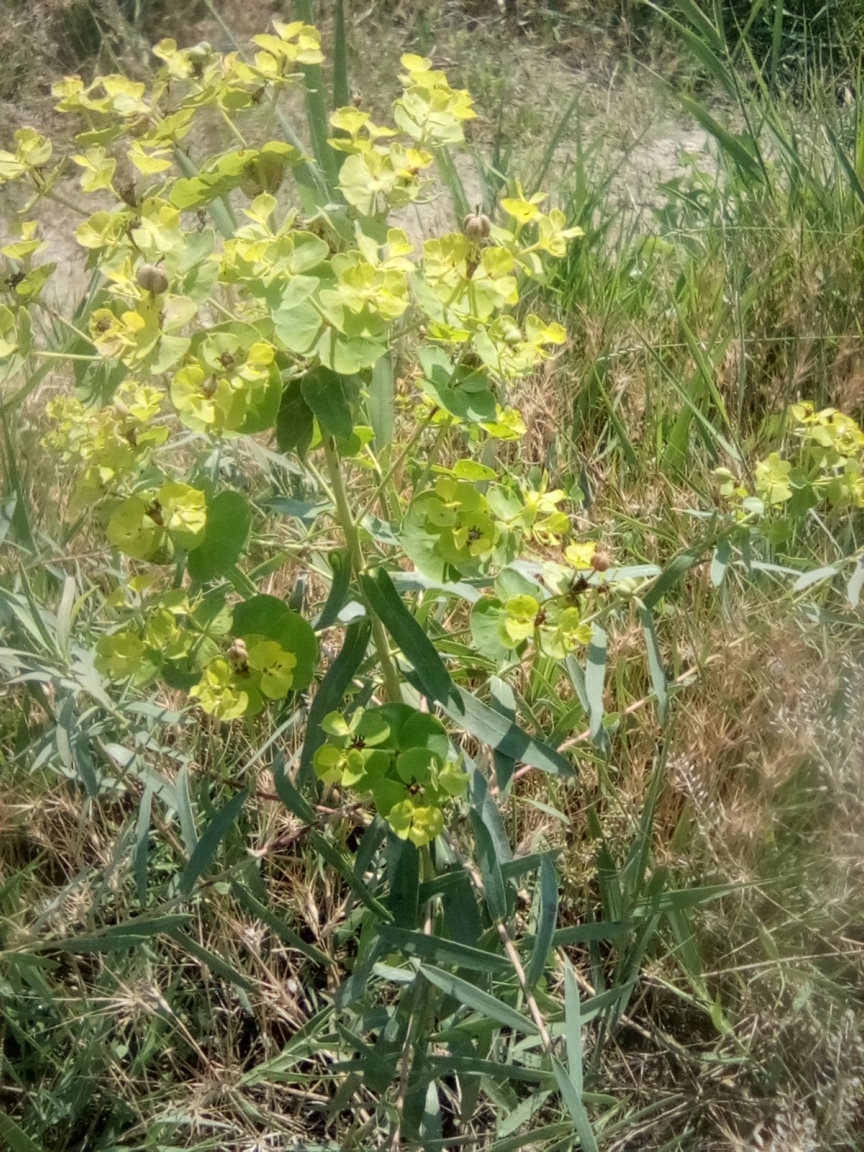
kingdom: Plantae
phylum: Tracheophyta
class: Magnoliopsida
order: Malpighiales
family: Euphorbiaceae
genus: Euphorbia
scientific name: Euphorbia virgata
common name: Leafy spurge
